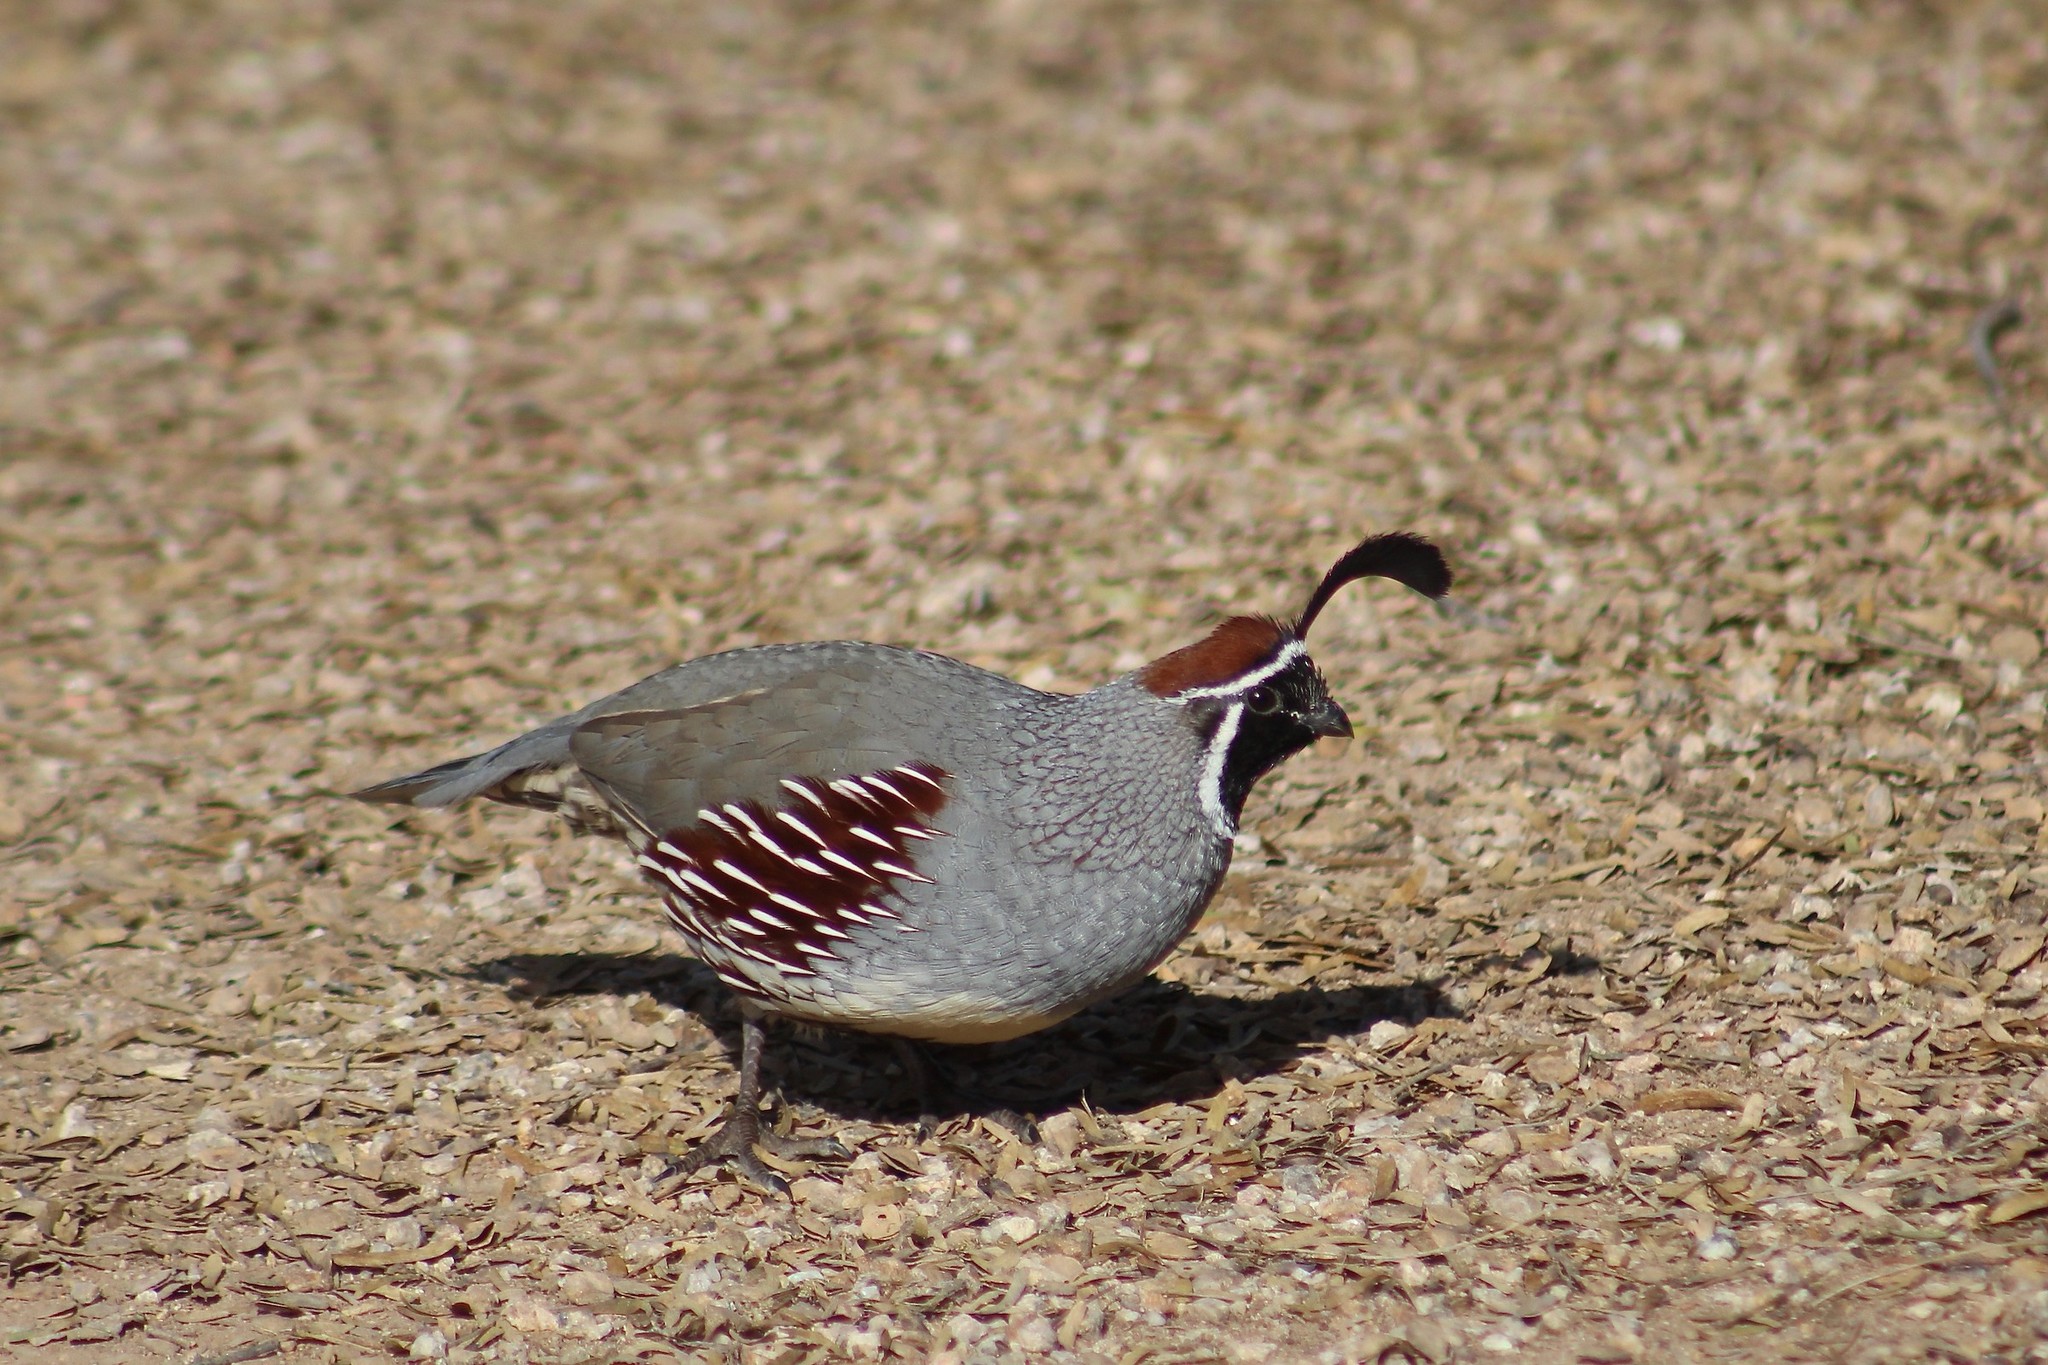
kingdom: Animalia
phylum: Chordata
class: Aves
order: Galliformes
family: Odontophoridae
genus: Callipepla
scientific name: Callipepla gambelii
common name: Gambel's quail
